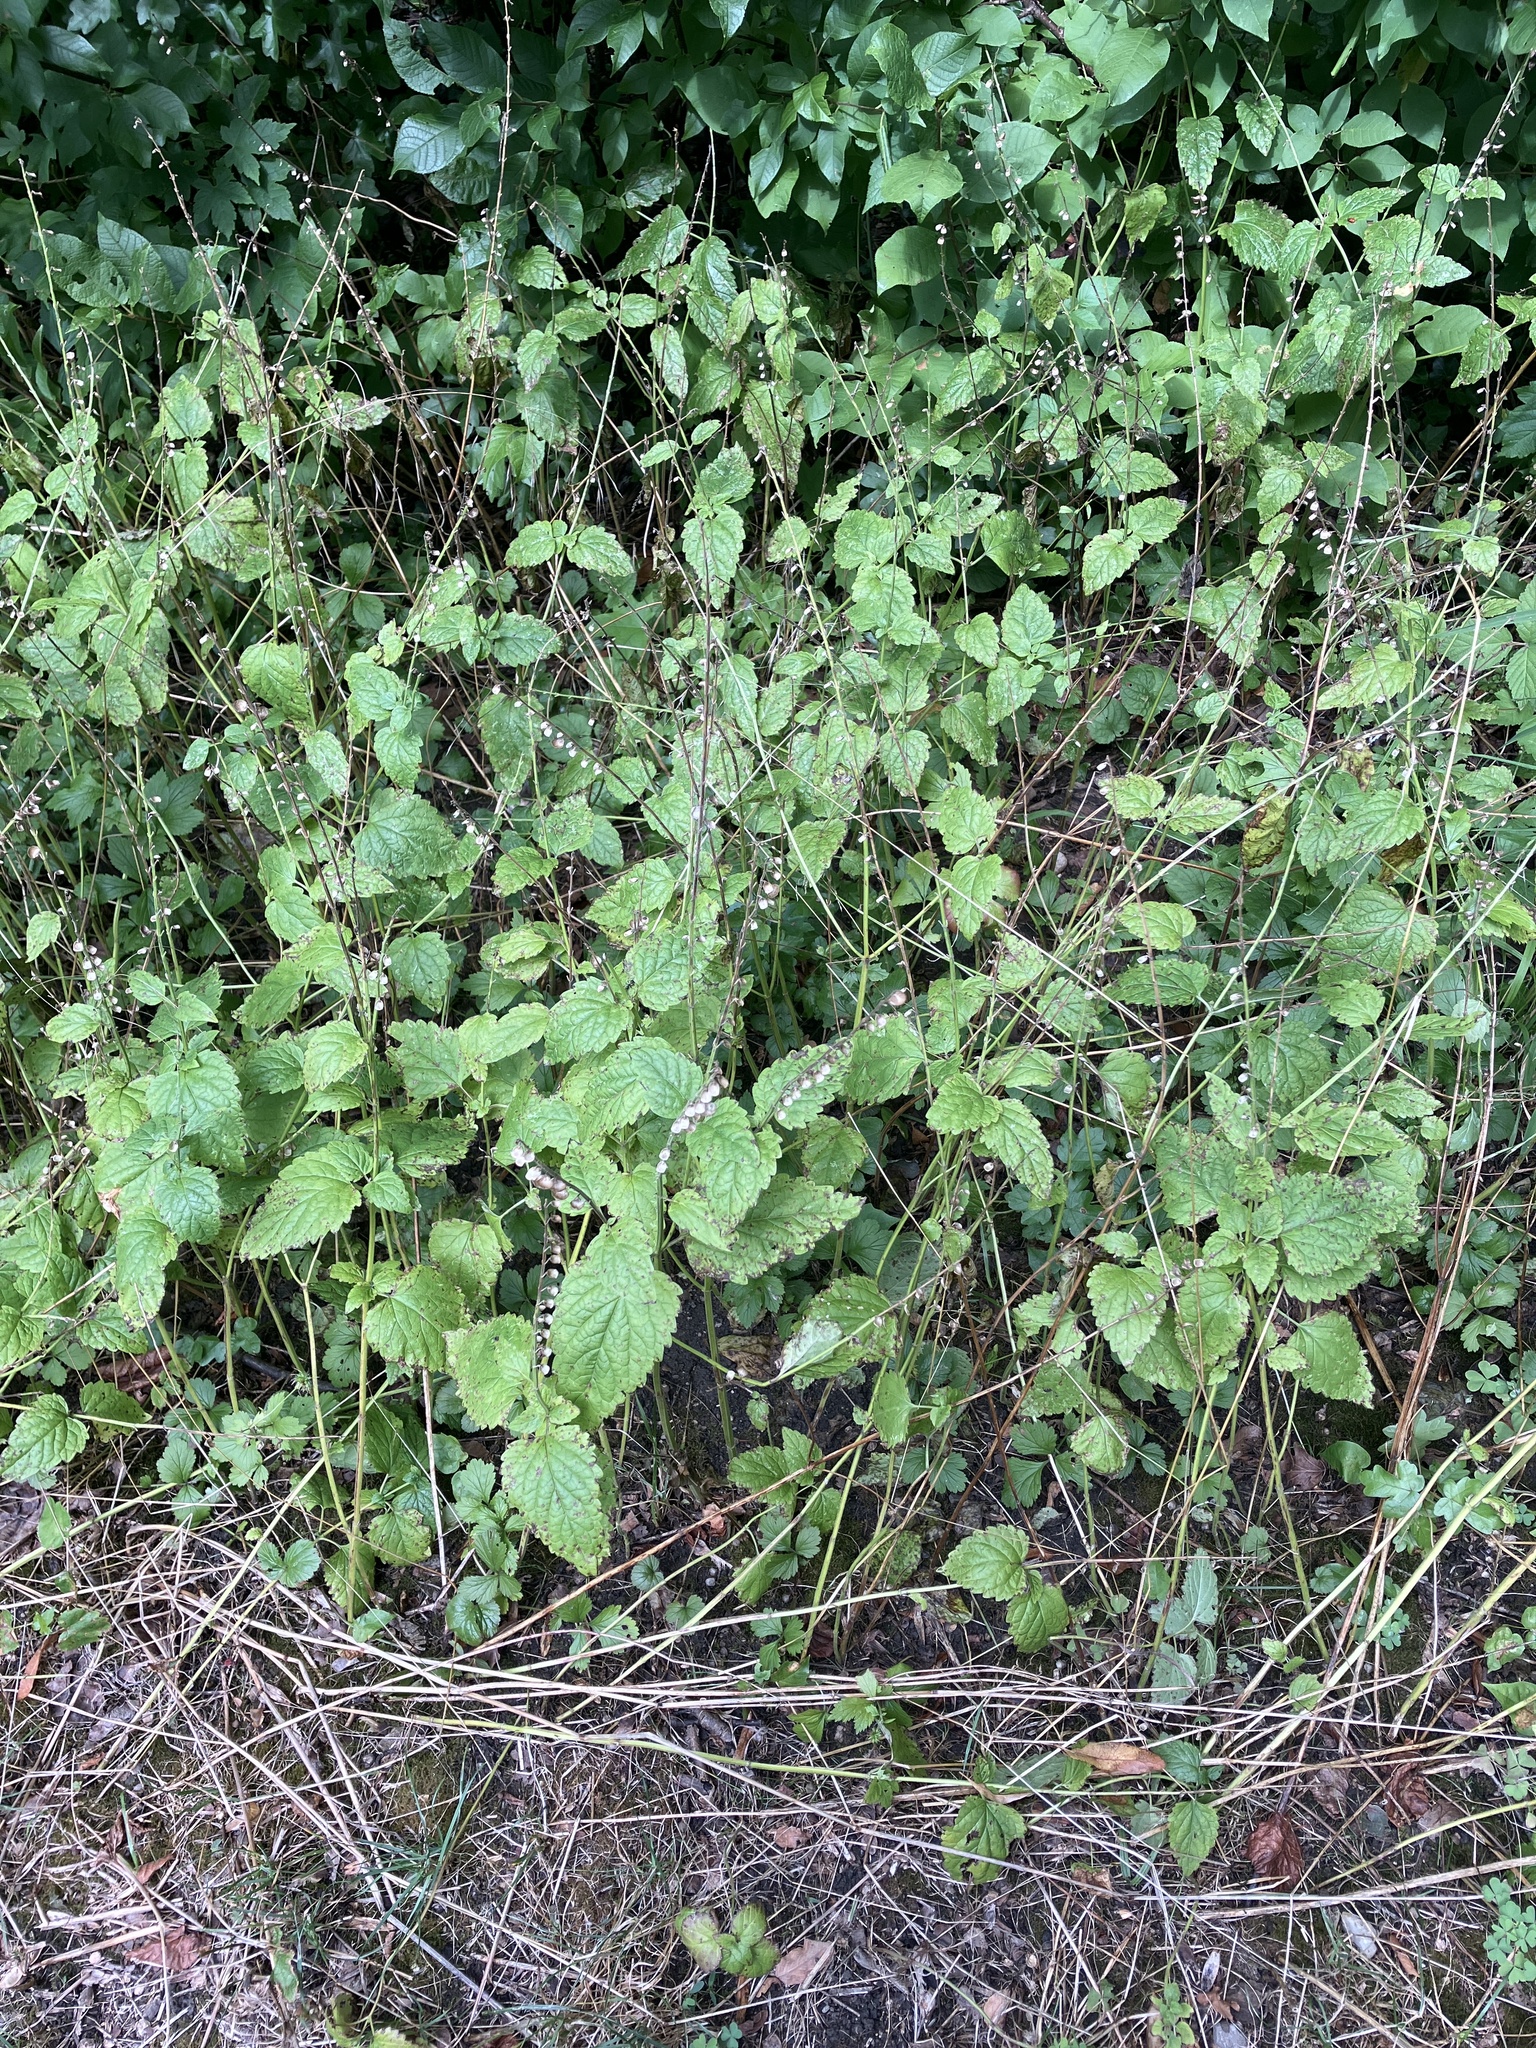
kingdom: Plantae
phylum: Tracheophyta
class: Magnoliopsida
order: Lamiales
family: Lamiaceae
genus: Scutellaria
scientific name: Scutellaria altissima
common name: Somerset skullcap
